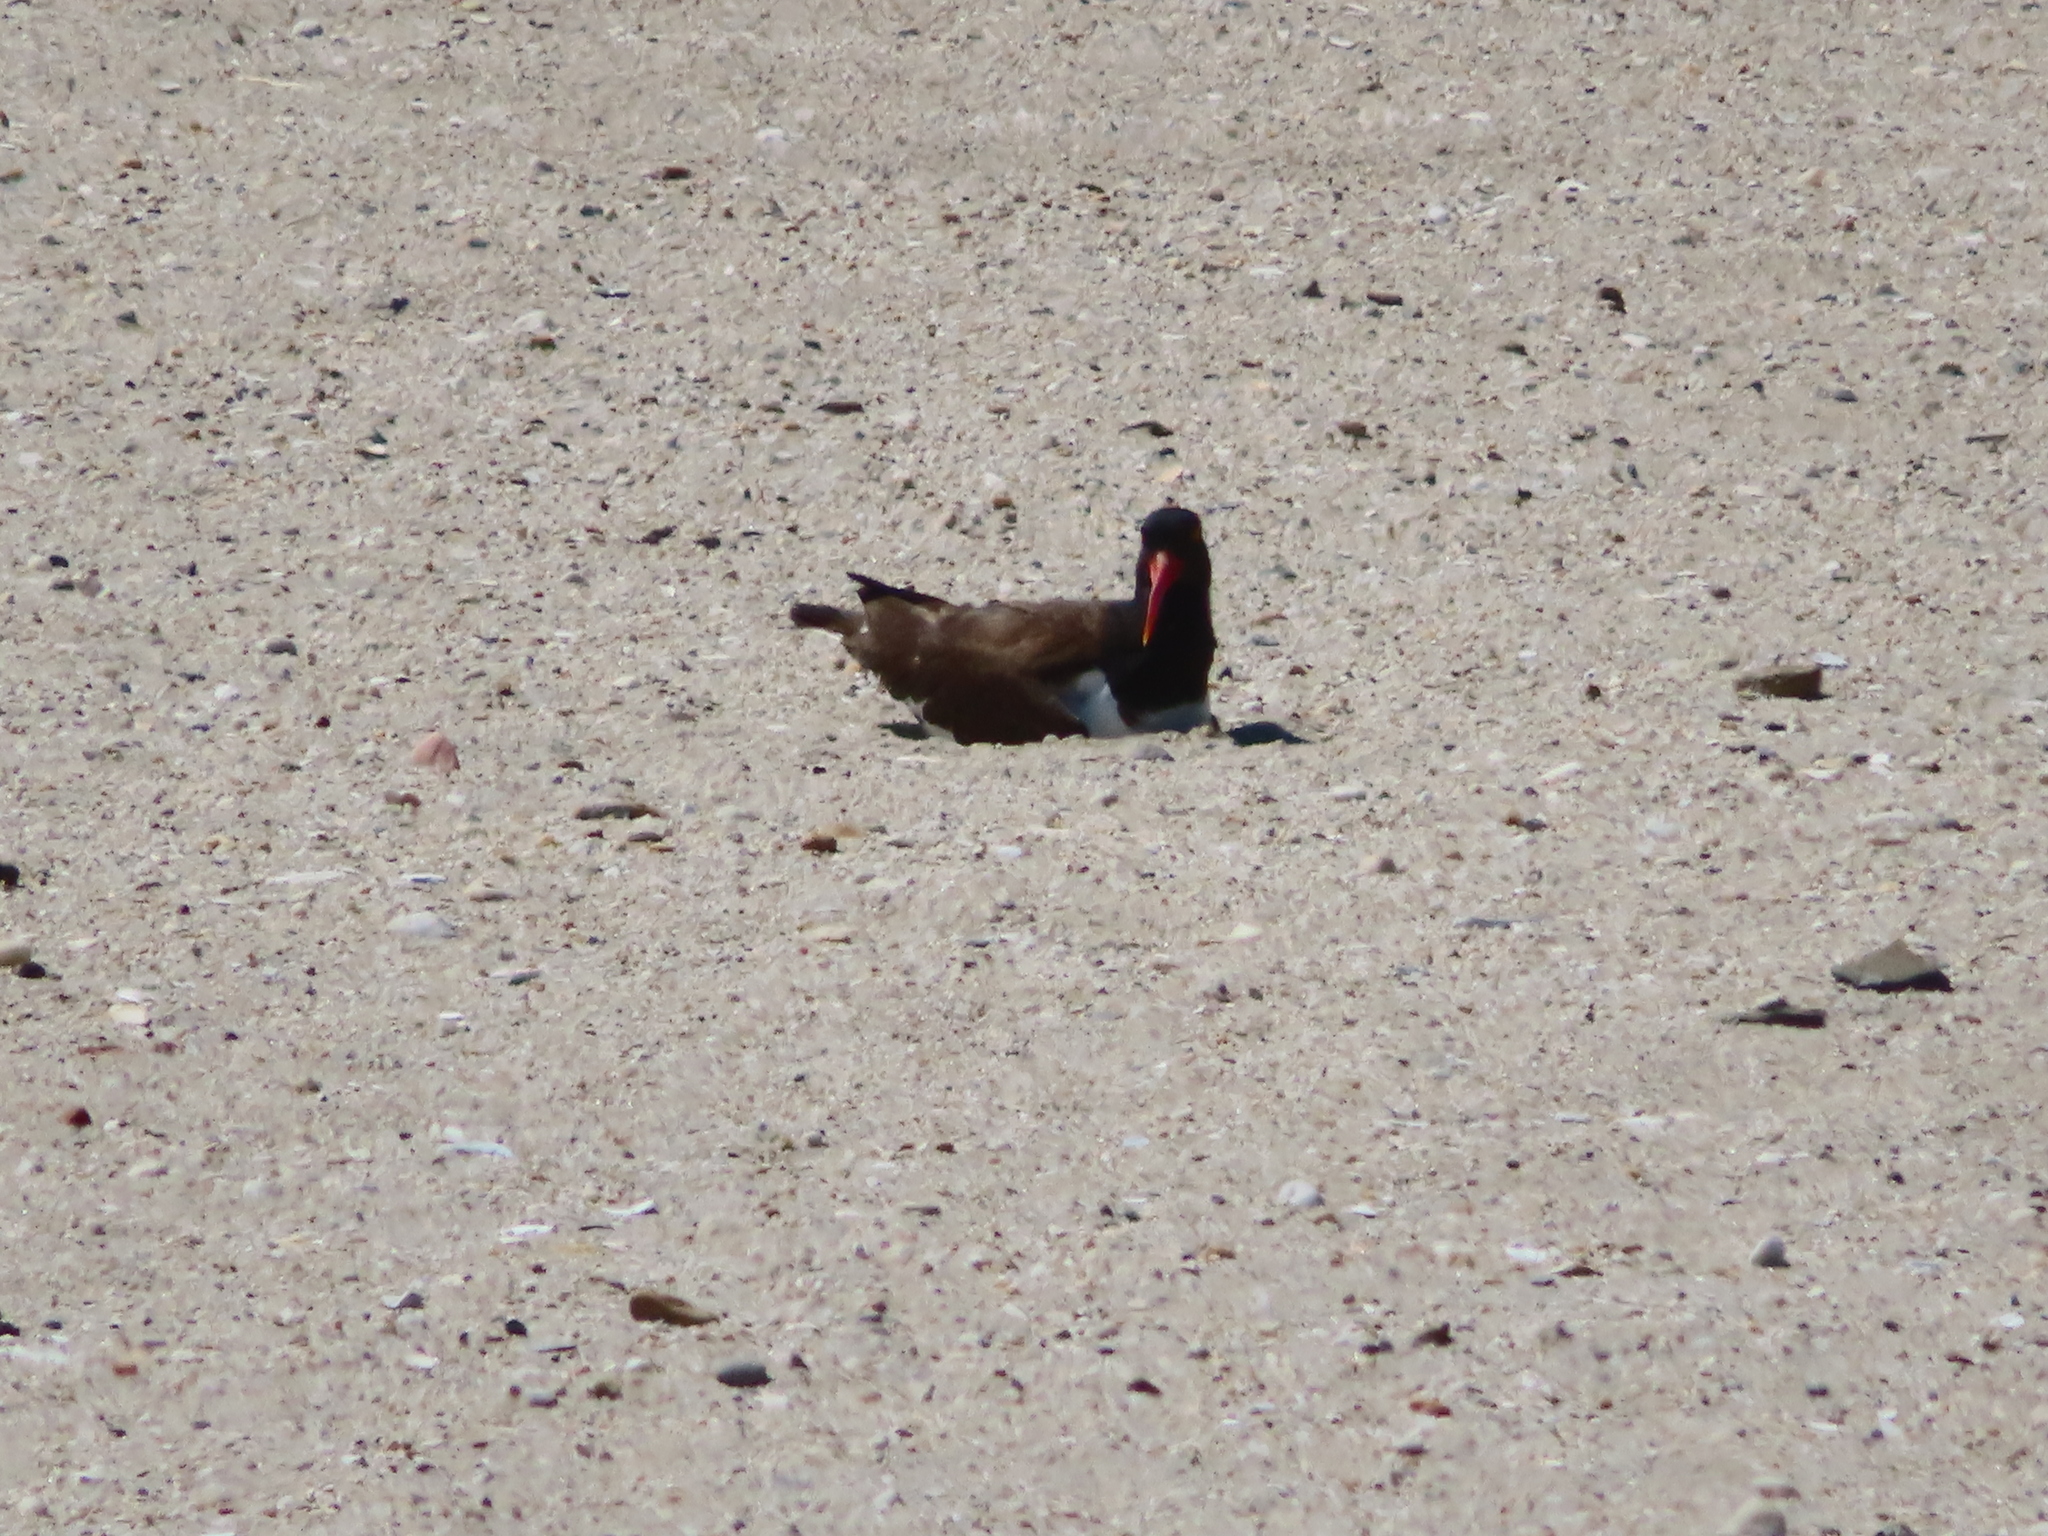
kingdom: Animalia
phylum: Chordata
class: Aves
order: Charadriiformes
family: Haematopodidae
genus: Haematopus
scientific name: Haematopus palliatus
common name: American oystercatcher
